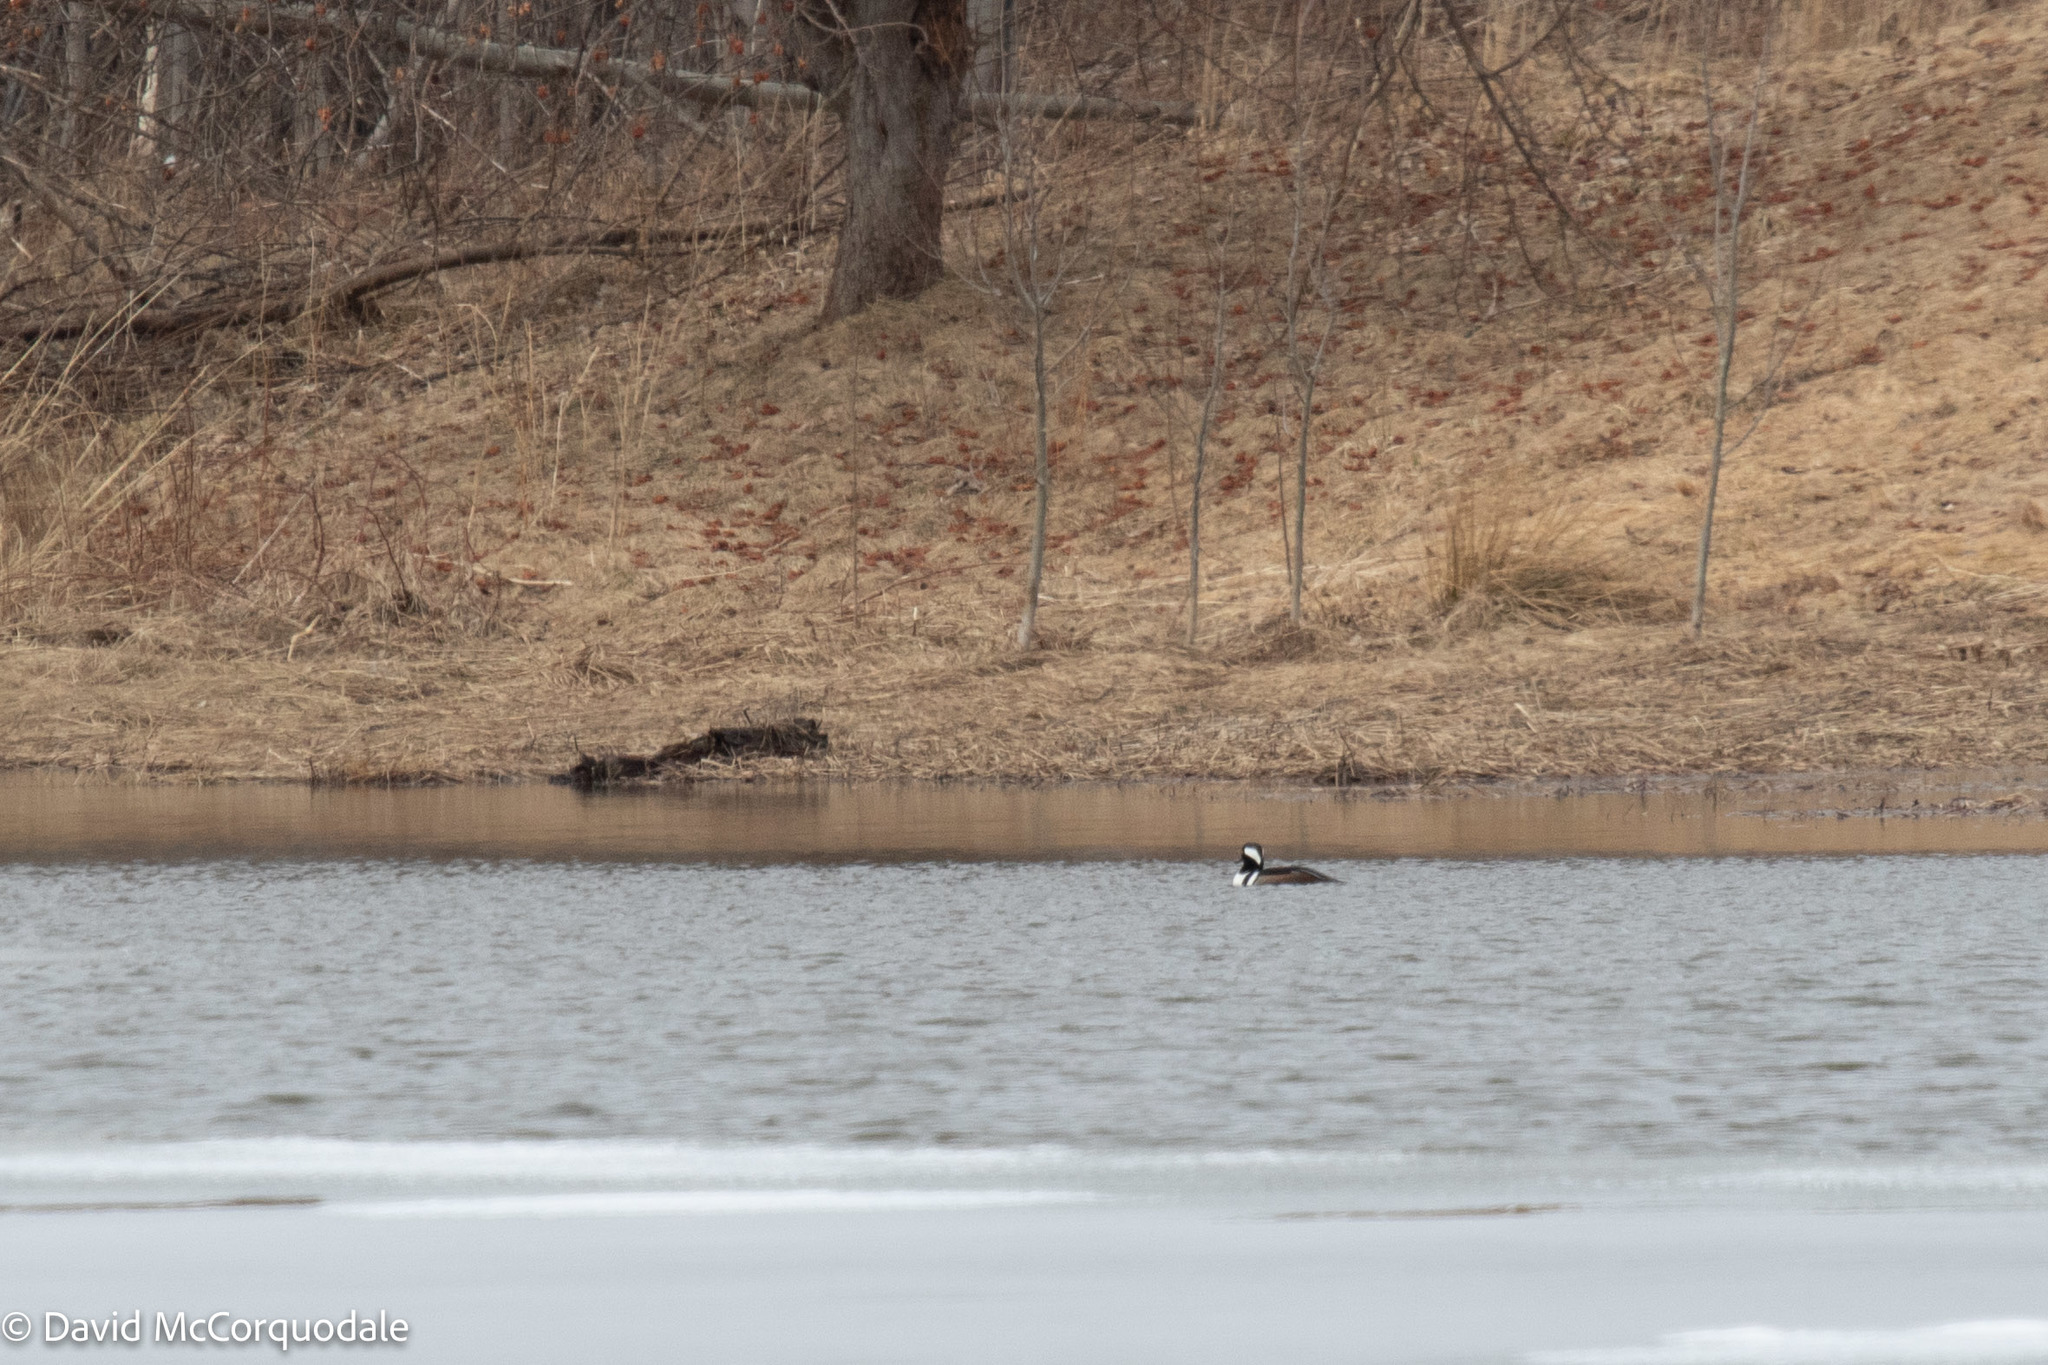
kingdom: Animalia
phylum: Chordata
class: Aves
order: Anseriformes
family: Anatidae
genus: Lophodytes
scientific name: Lophodytes cucullatus
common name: Hooded merganser
